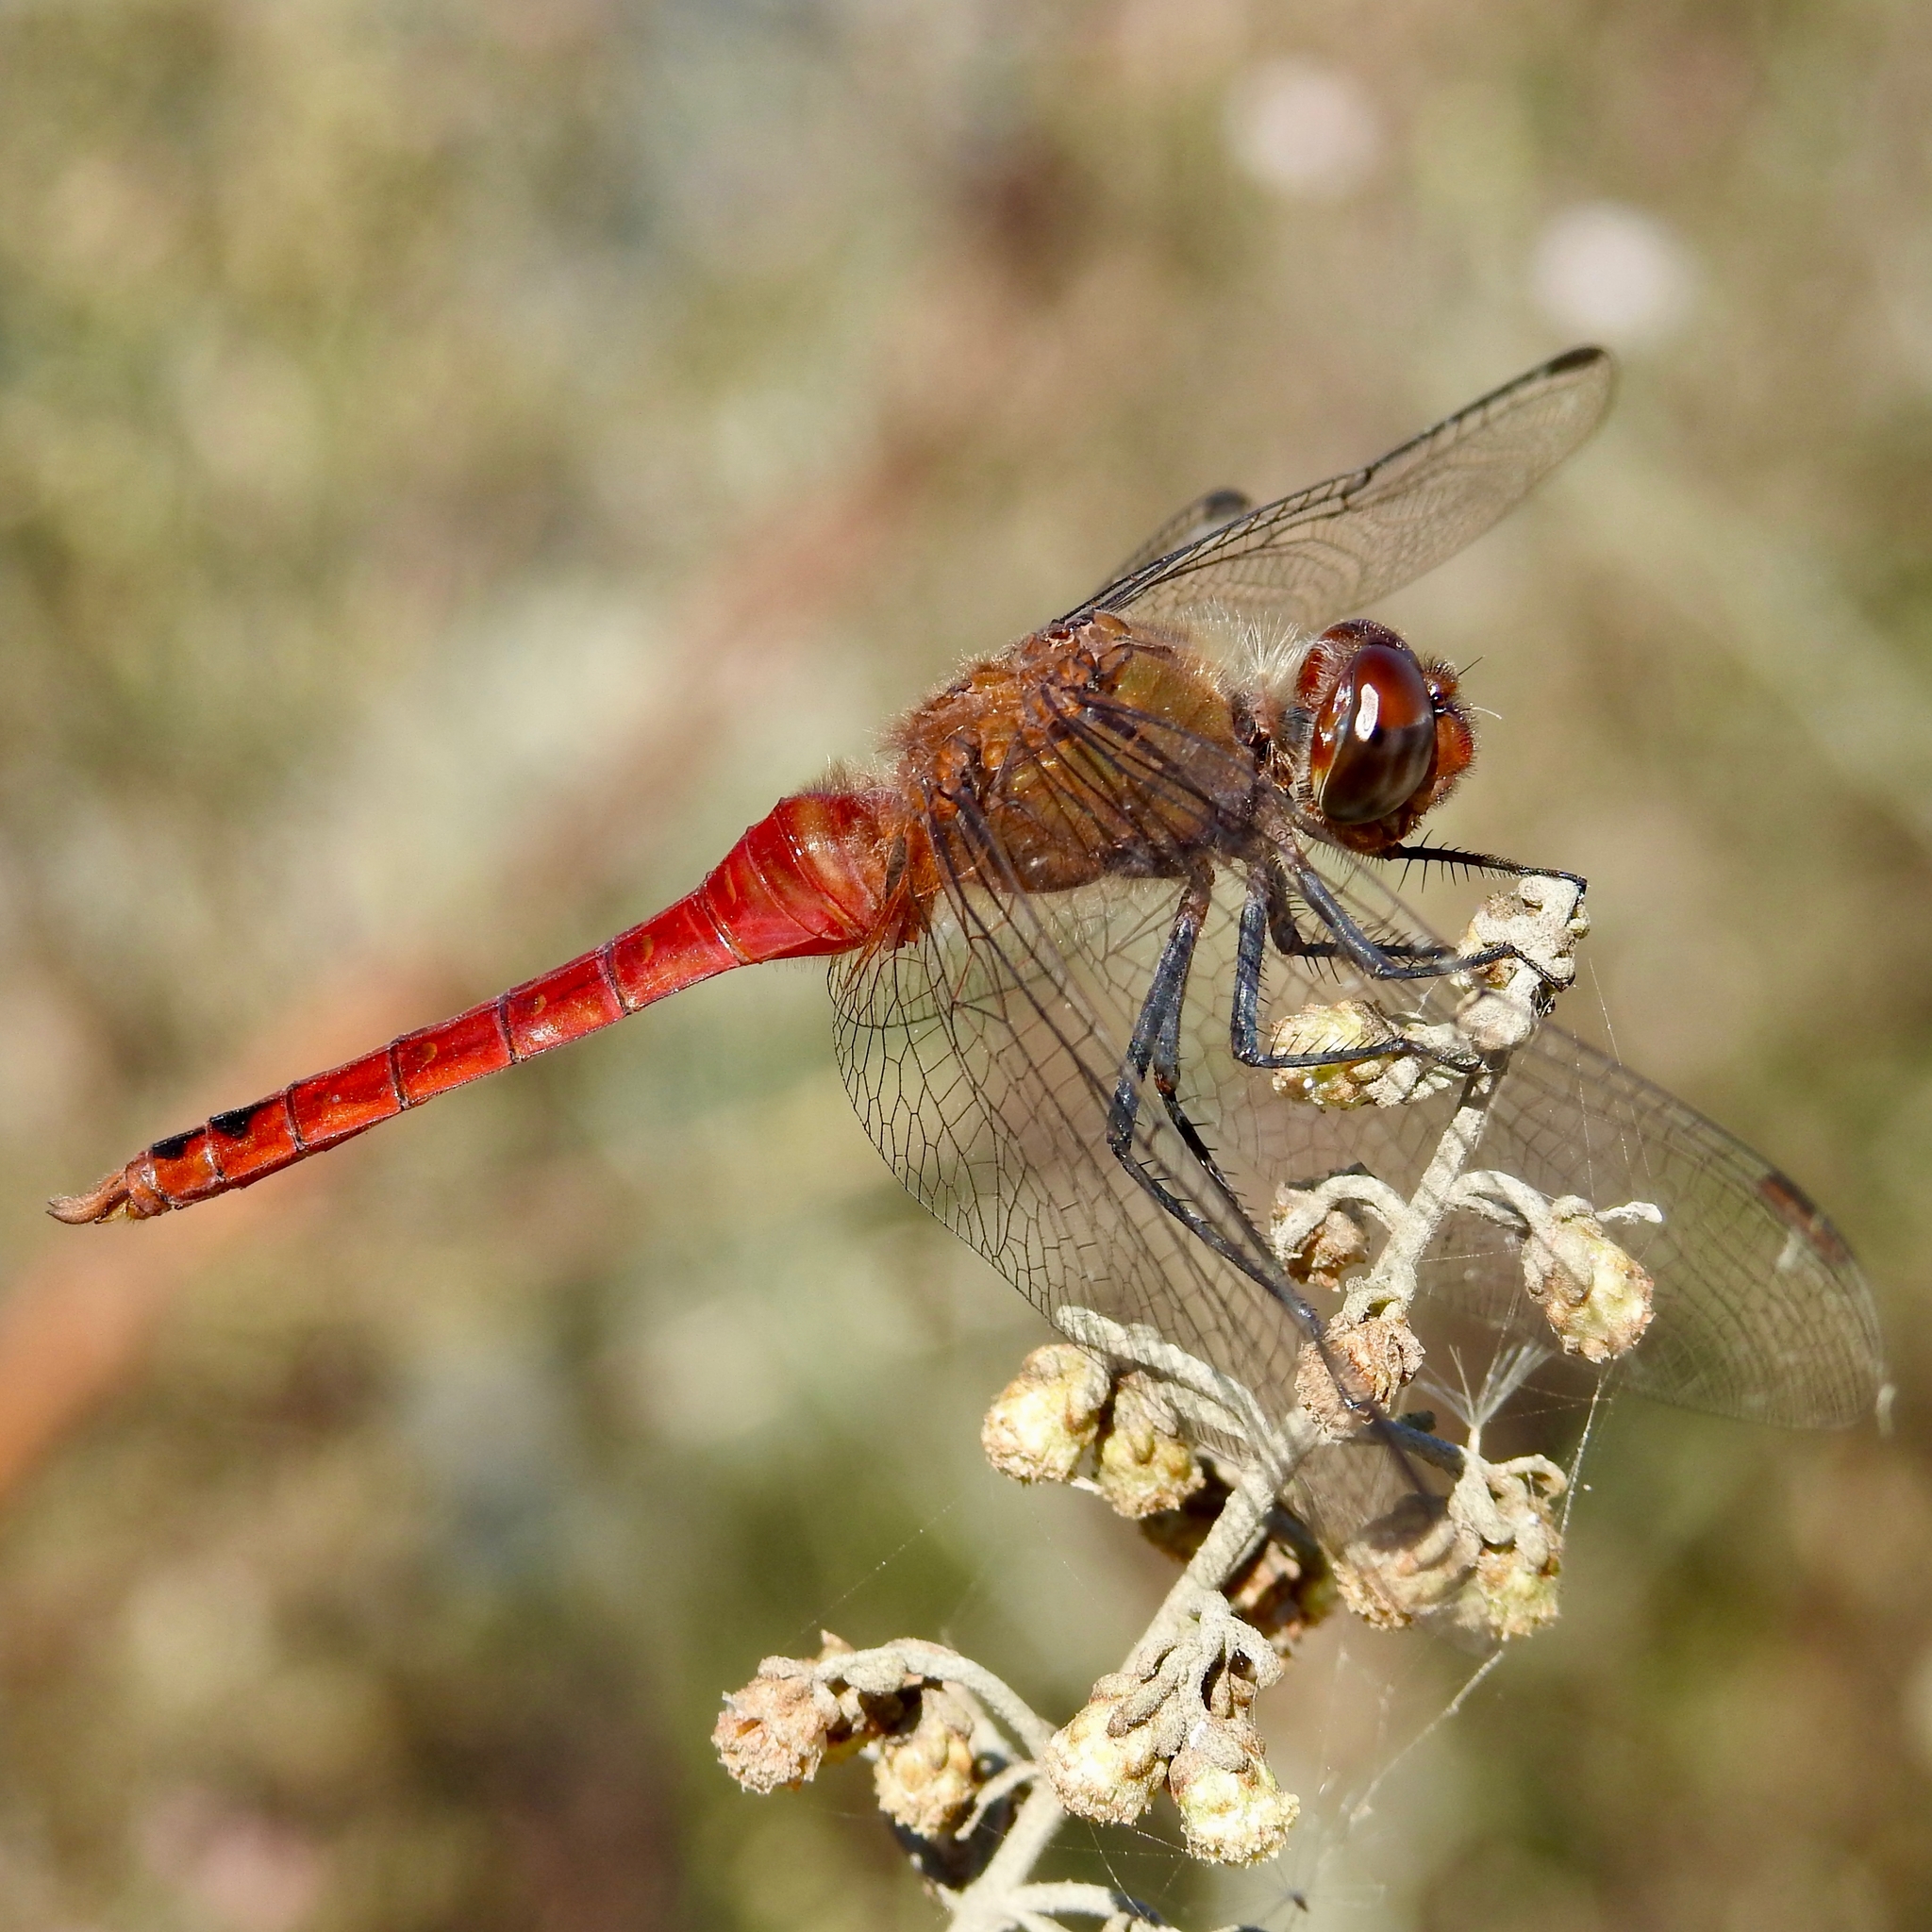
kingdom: Animalia
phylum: Arthropoda
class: Insecta
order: Odonata
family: Libellulidae
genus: Brachymesia
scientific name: Brachymesia furcata
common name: Red-taled pennant
